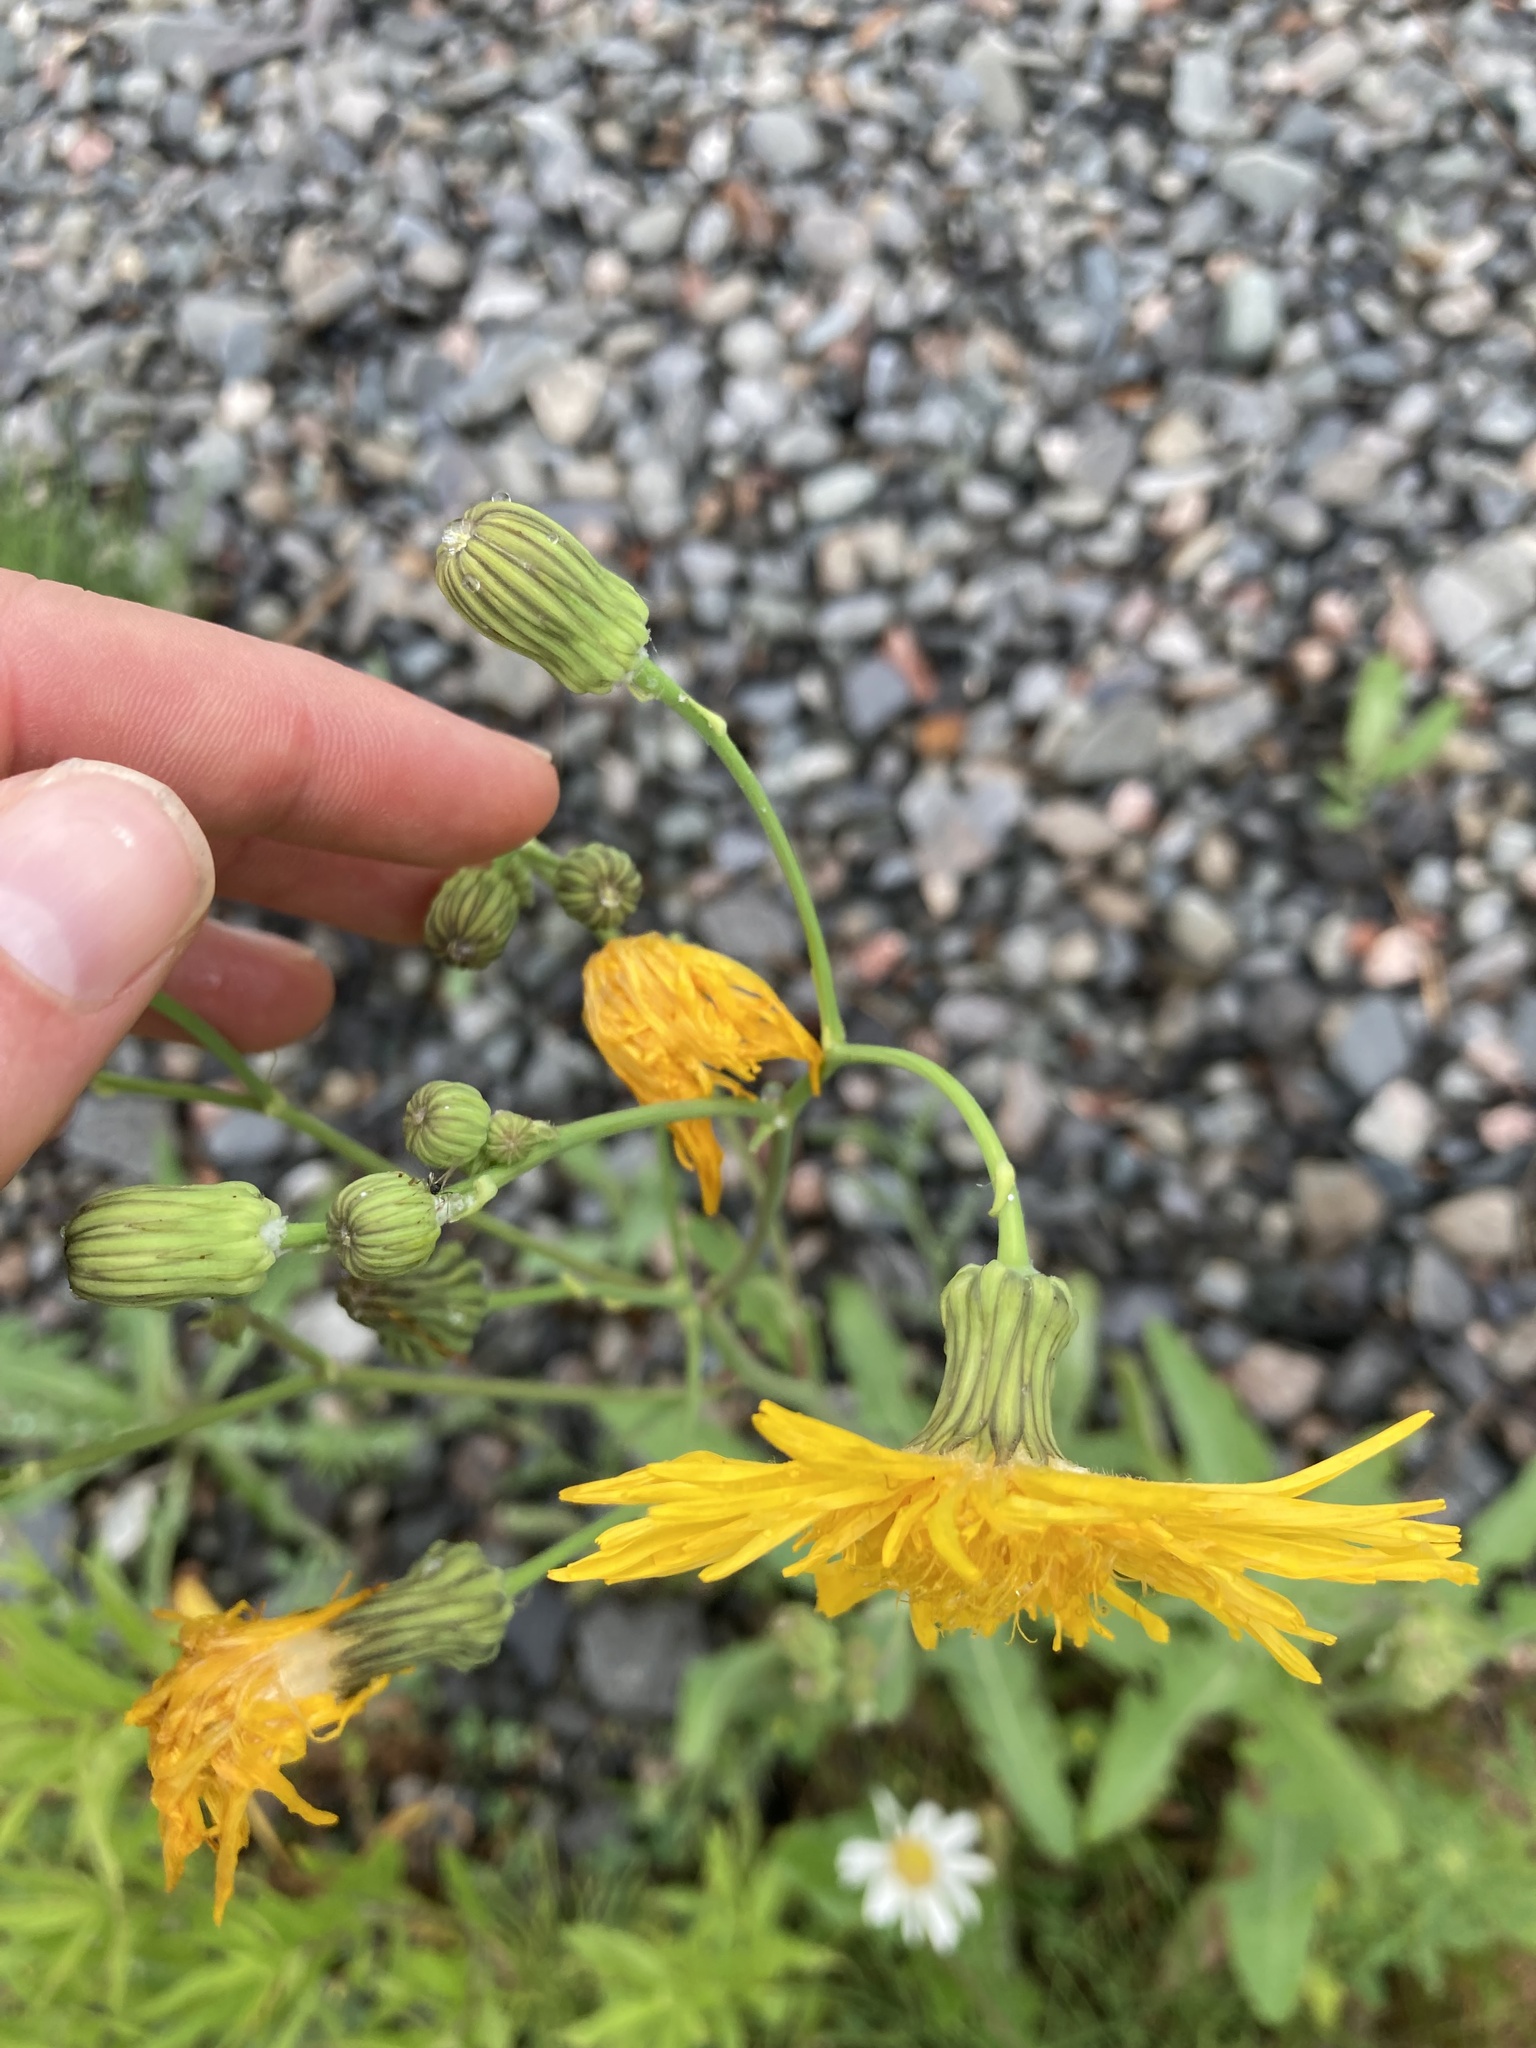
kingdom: Plantae
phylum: Tracheophyta
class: Magnoliopsida
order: Asterales
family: Asteraceae
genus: Sonchus
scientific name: Sonchus arvensis
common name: Perennial sow-thistle
